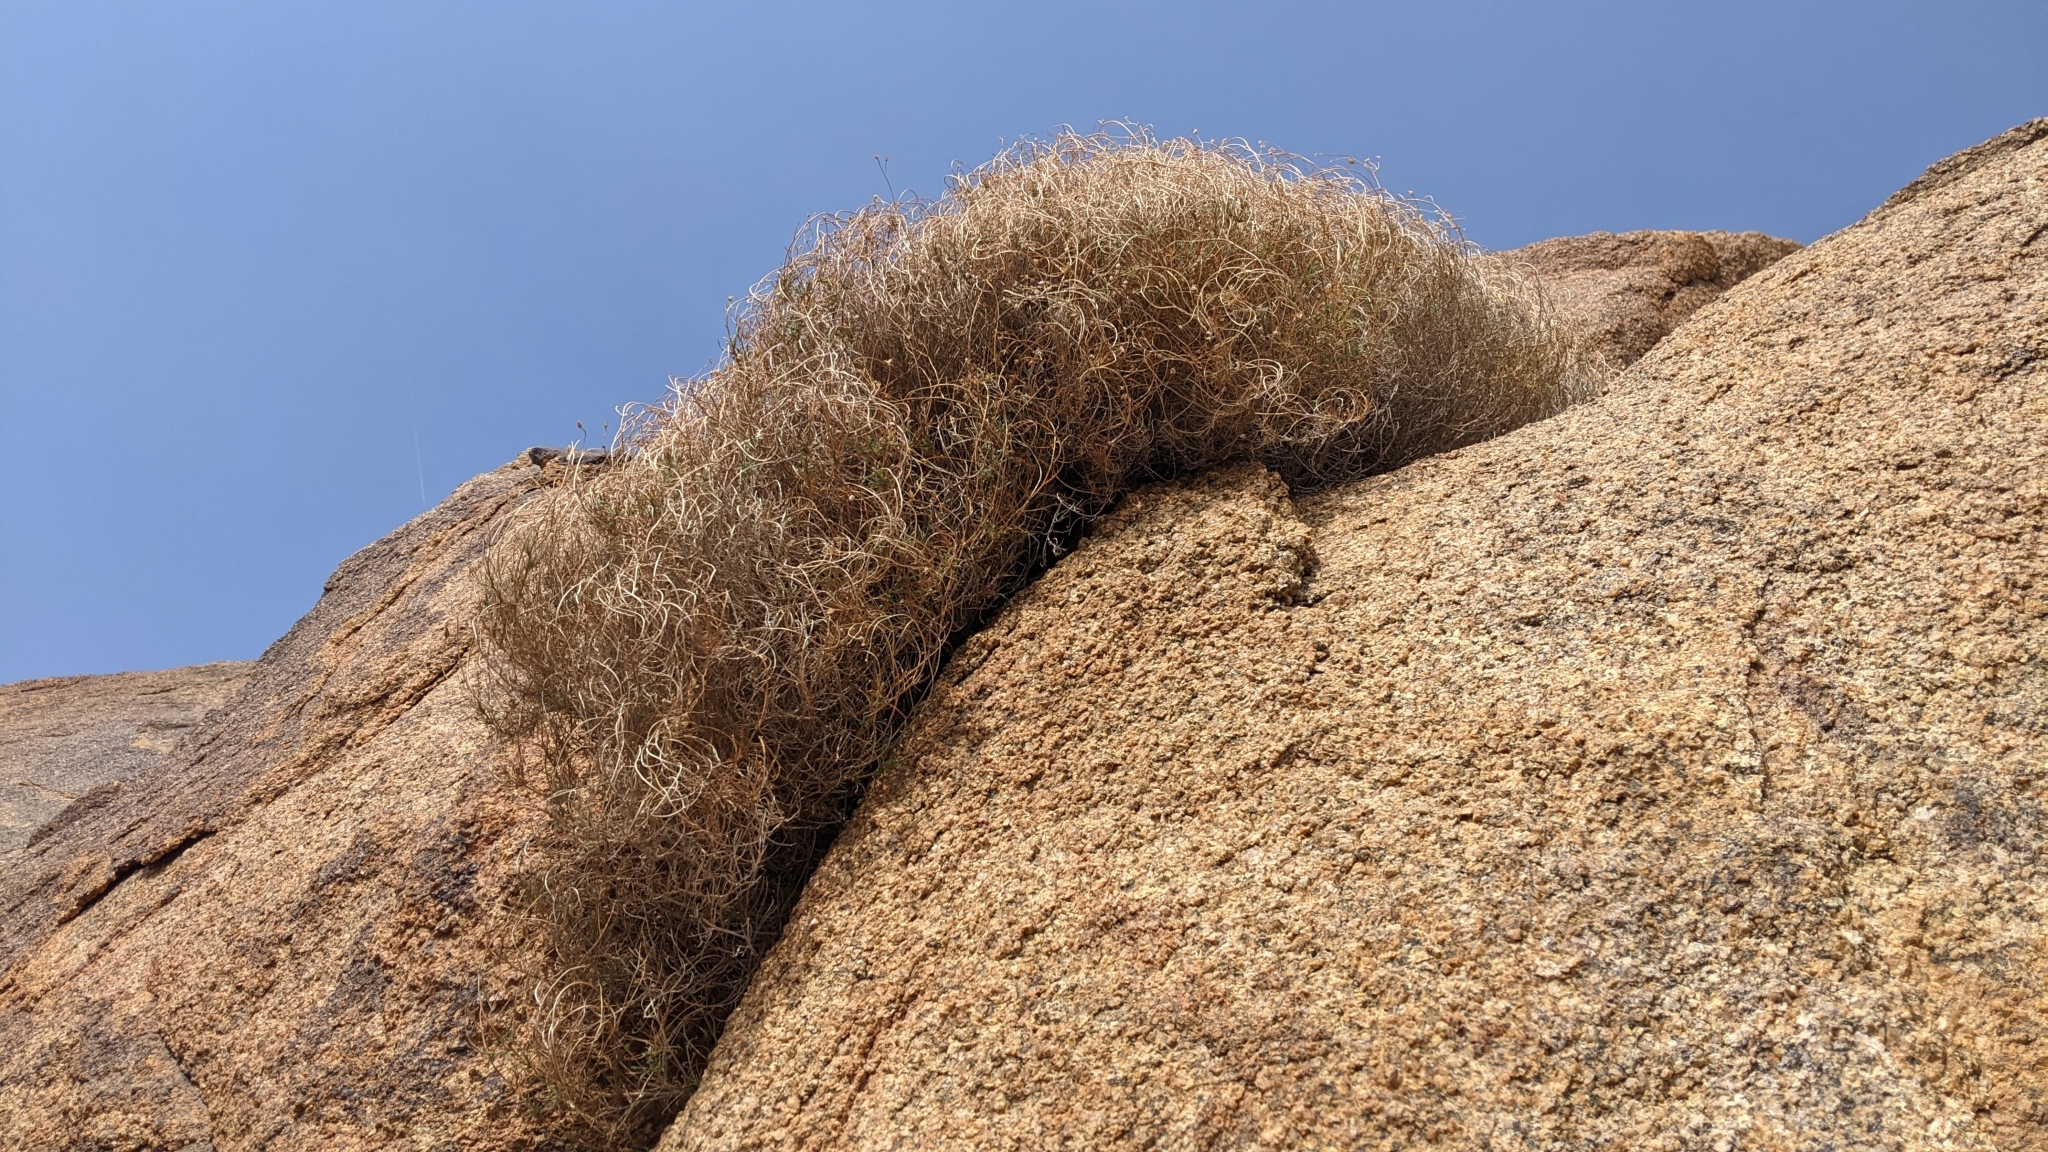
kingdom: Plantae
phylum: Tracheophyta
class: Magnoliopsida
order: Asterales
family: Asteraceae
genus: Pleurocoronis
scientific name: Pleurocoronis pluriseta
